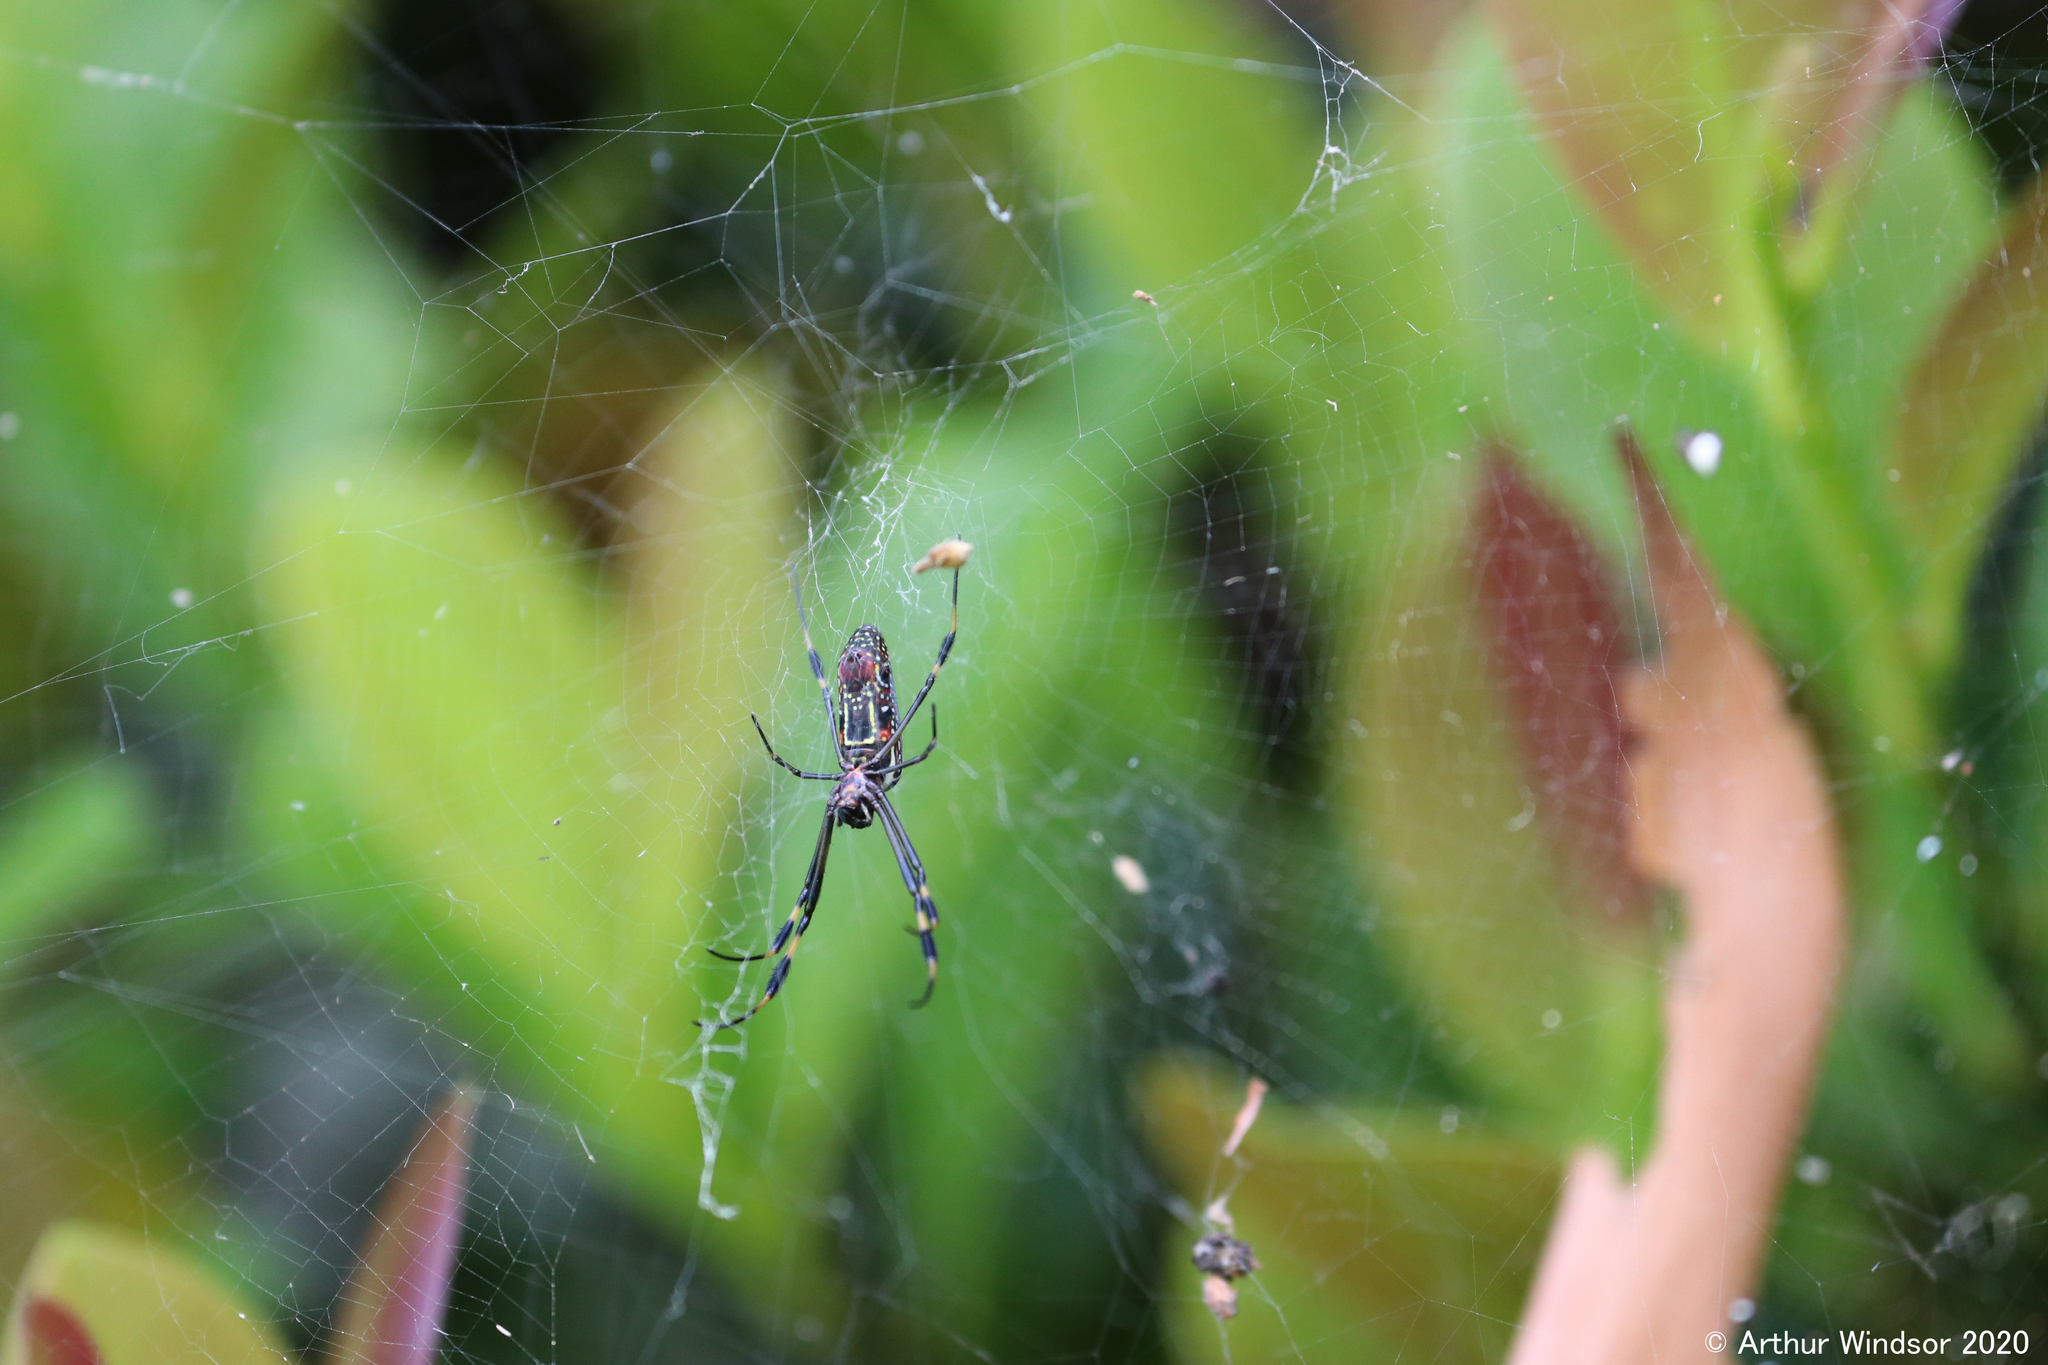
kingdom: Animalia
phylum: Arthropoda
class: Arachnida
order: Araneae
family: Araneidae
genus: Trichonephila
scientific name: Trichonephila clavipes
